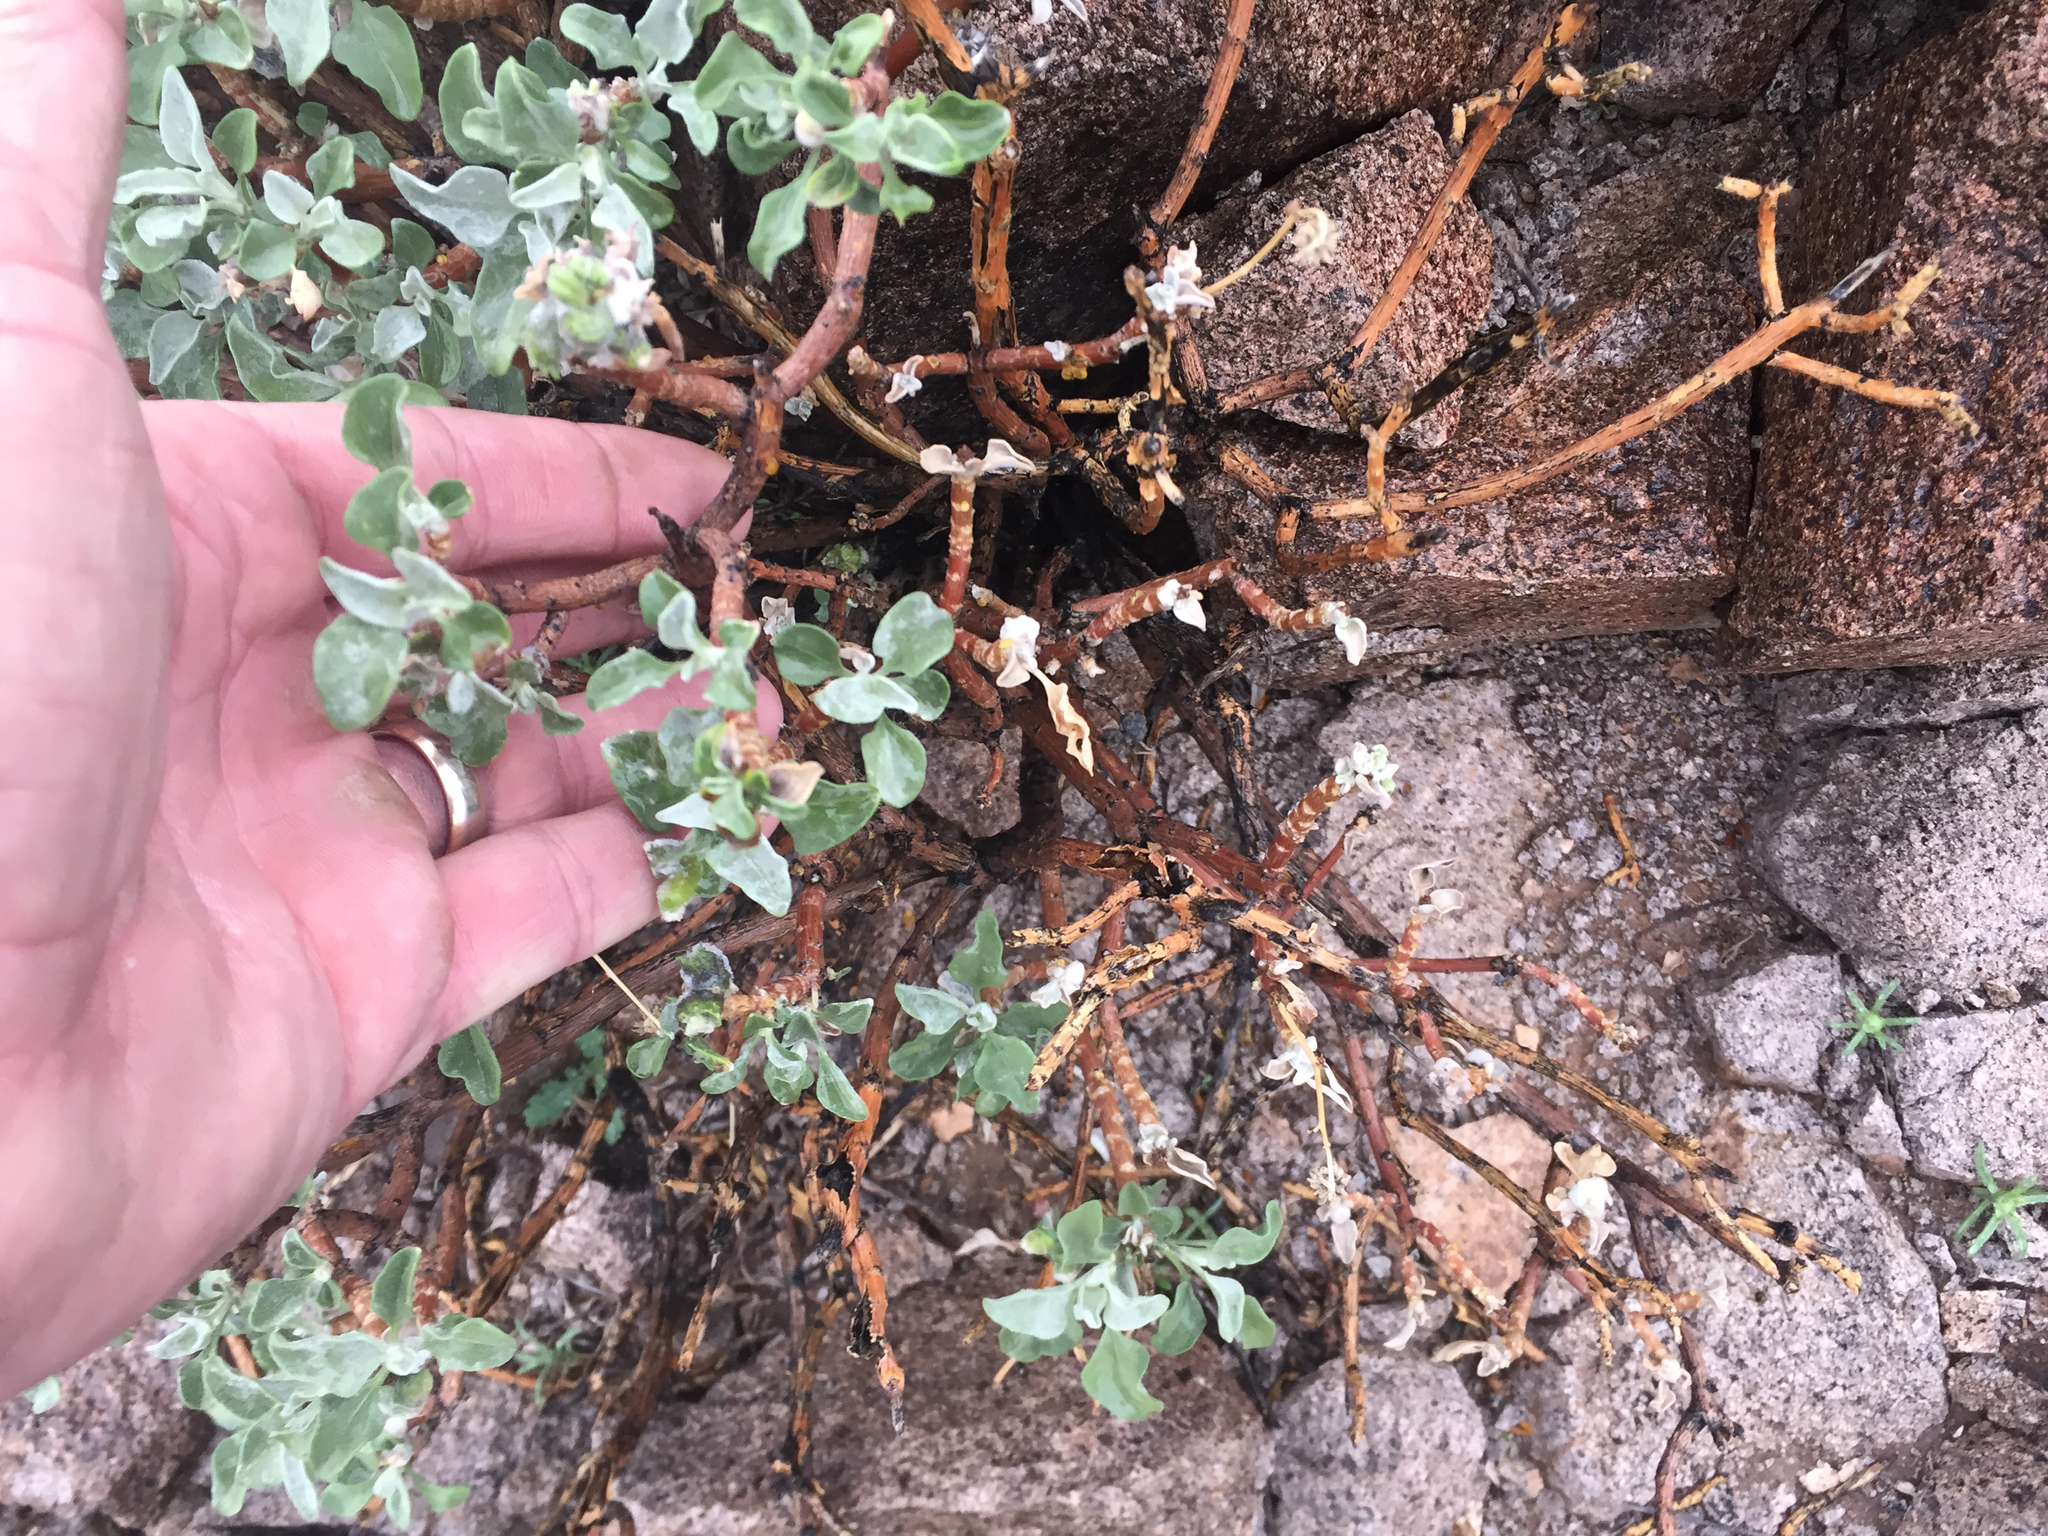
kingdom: Plantae
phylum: Tracheophyta
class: Magnoliopsida
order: Asterales
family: Asteraceae
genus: Encelia
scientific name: Encelia farinosa
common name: Brittlebush
